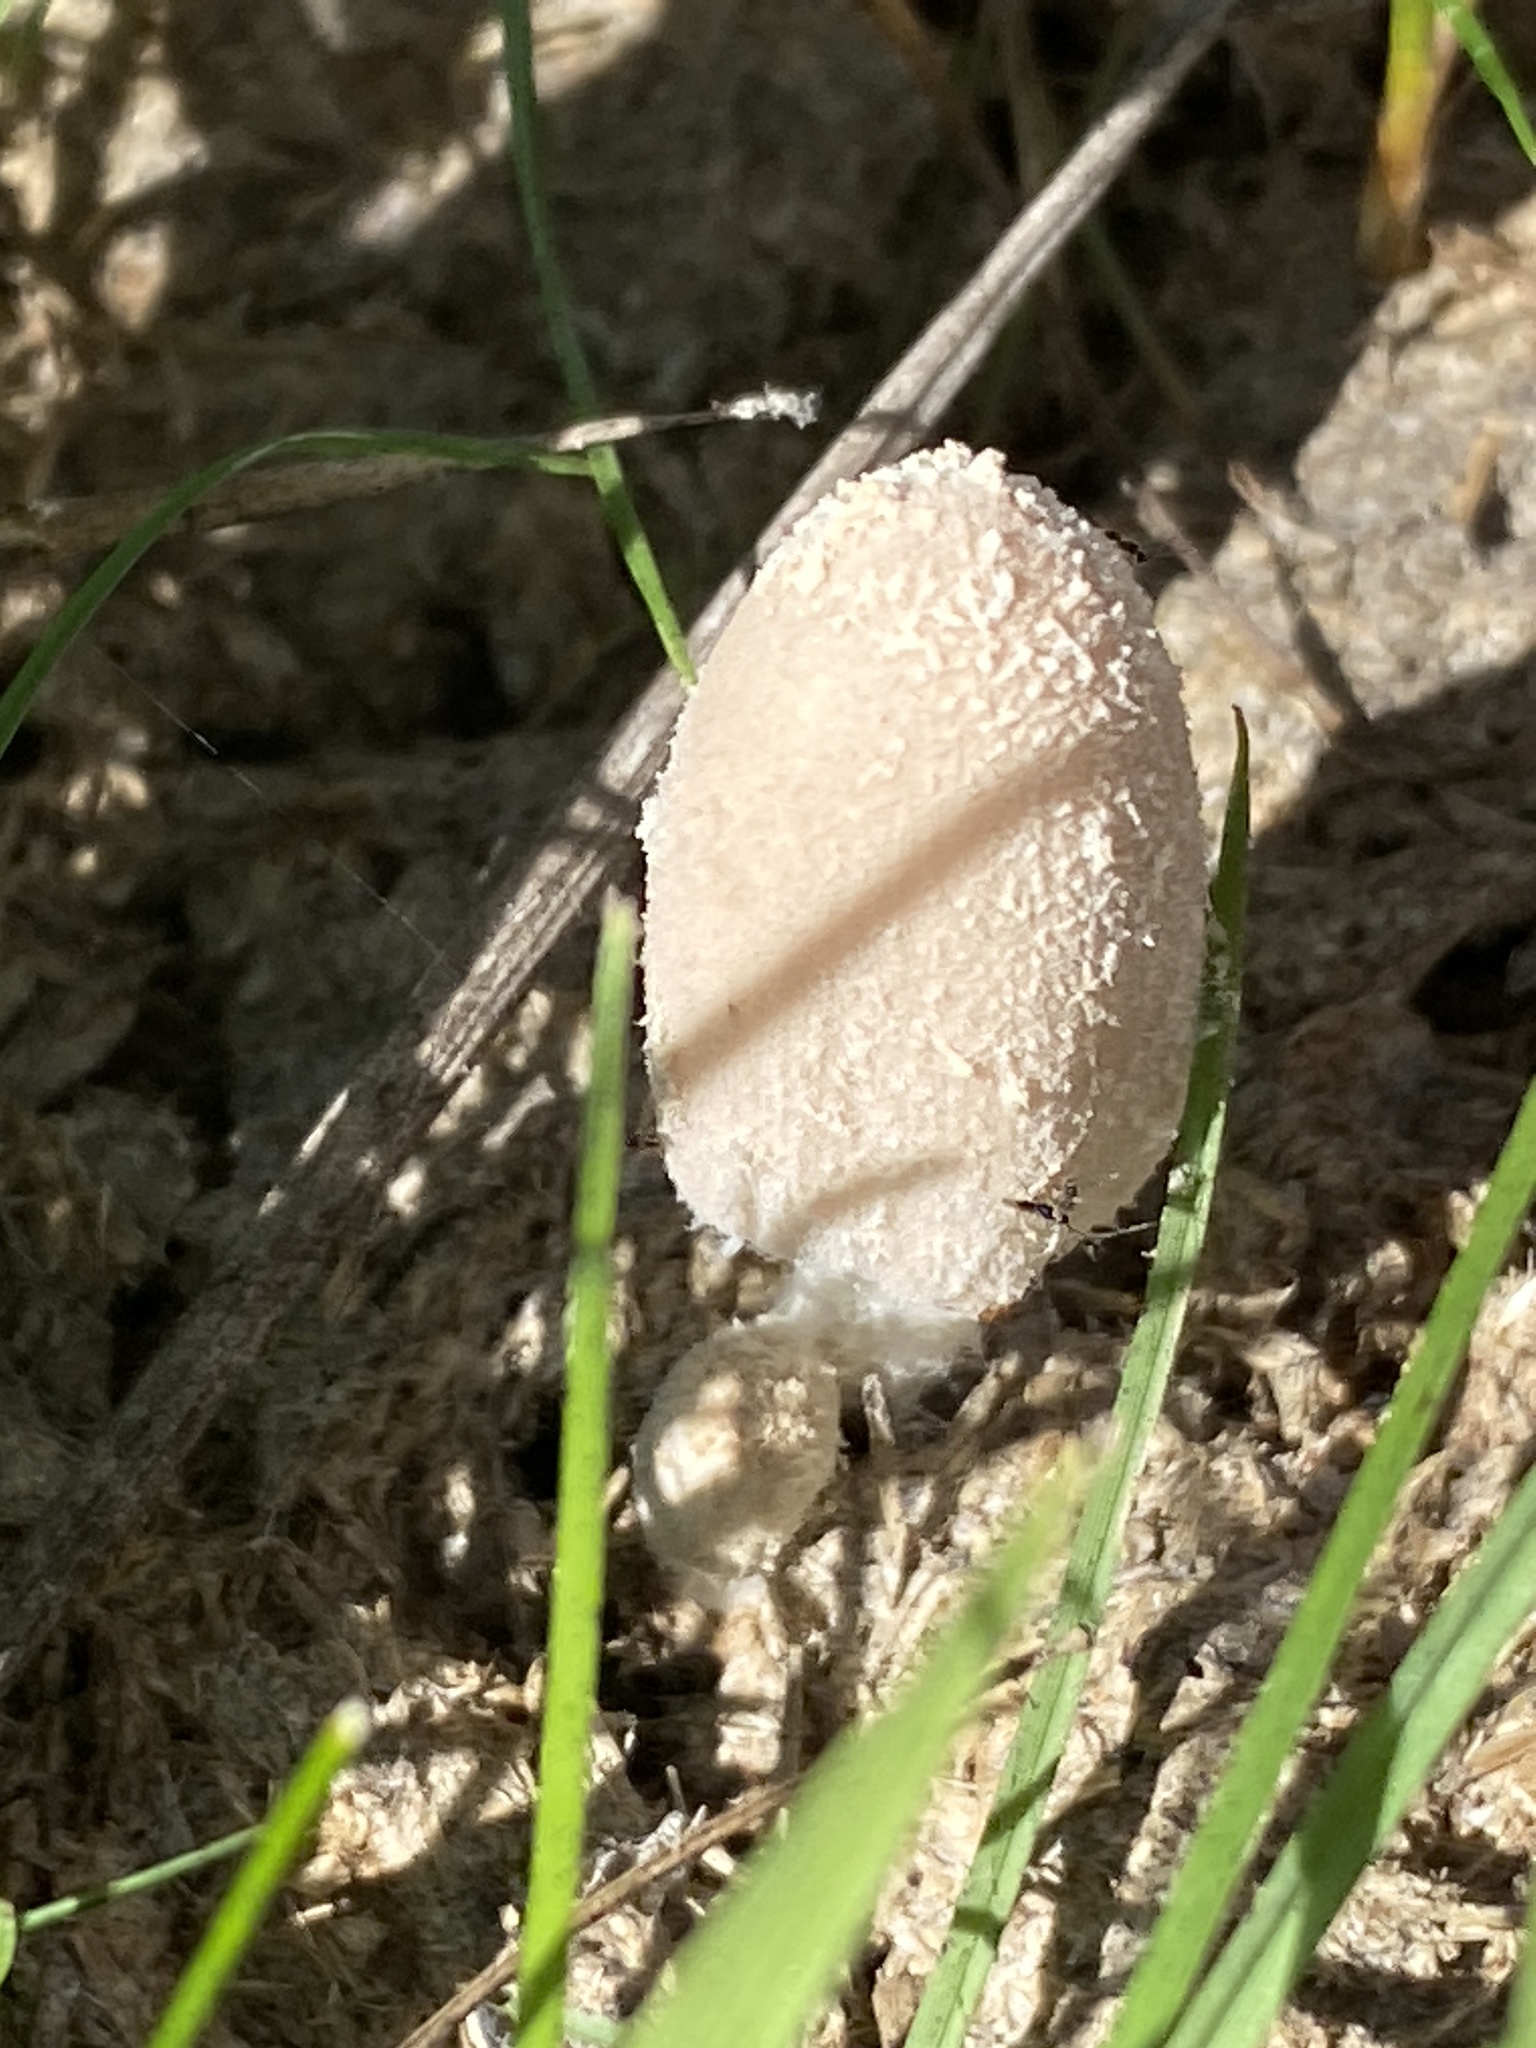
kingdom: Fungi
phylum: Basidiomycota
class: Agaricomycetes
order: Agaricales
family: Psathyrellaceae
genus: Coprinopsis
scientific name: Coprinopsis nivea
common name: Snowy inkcap
